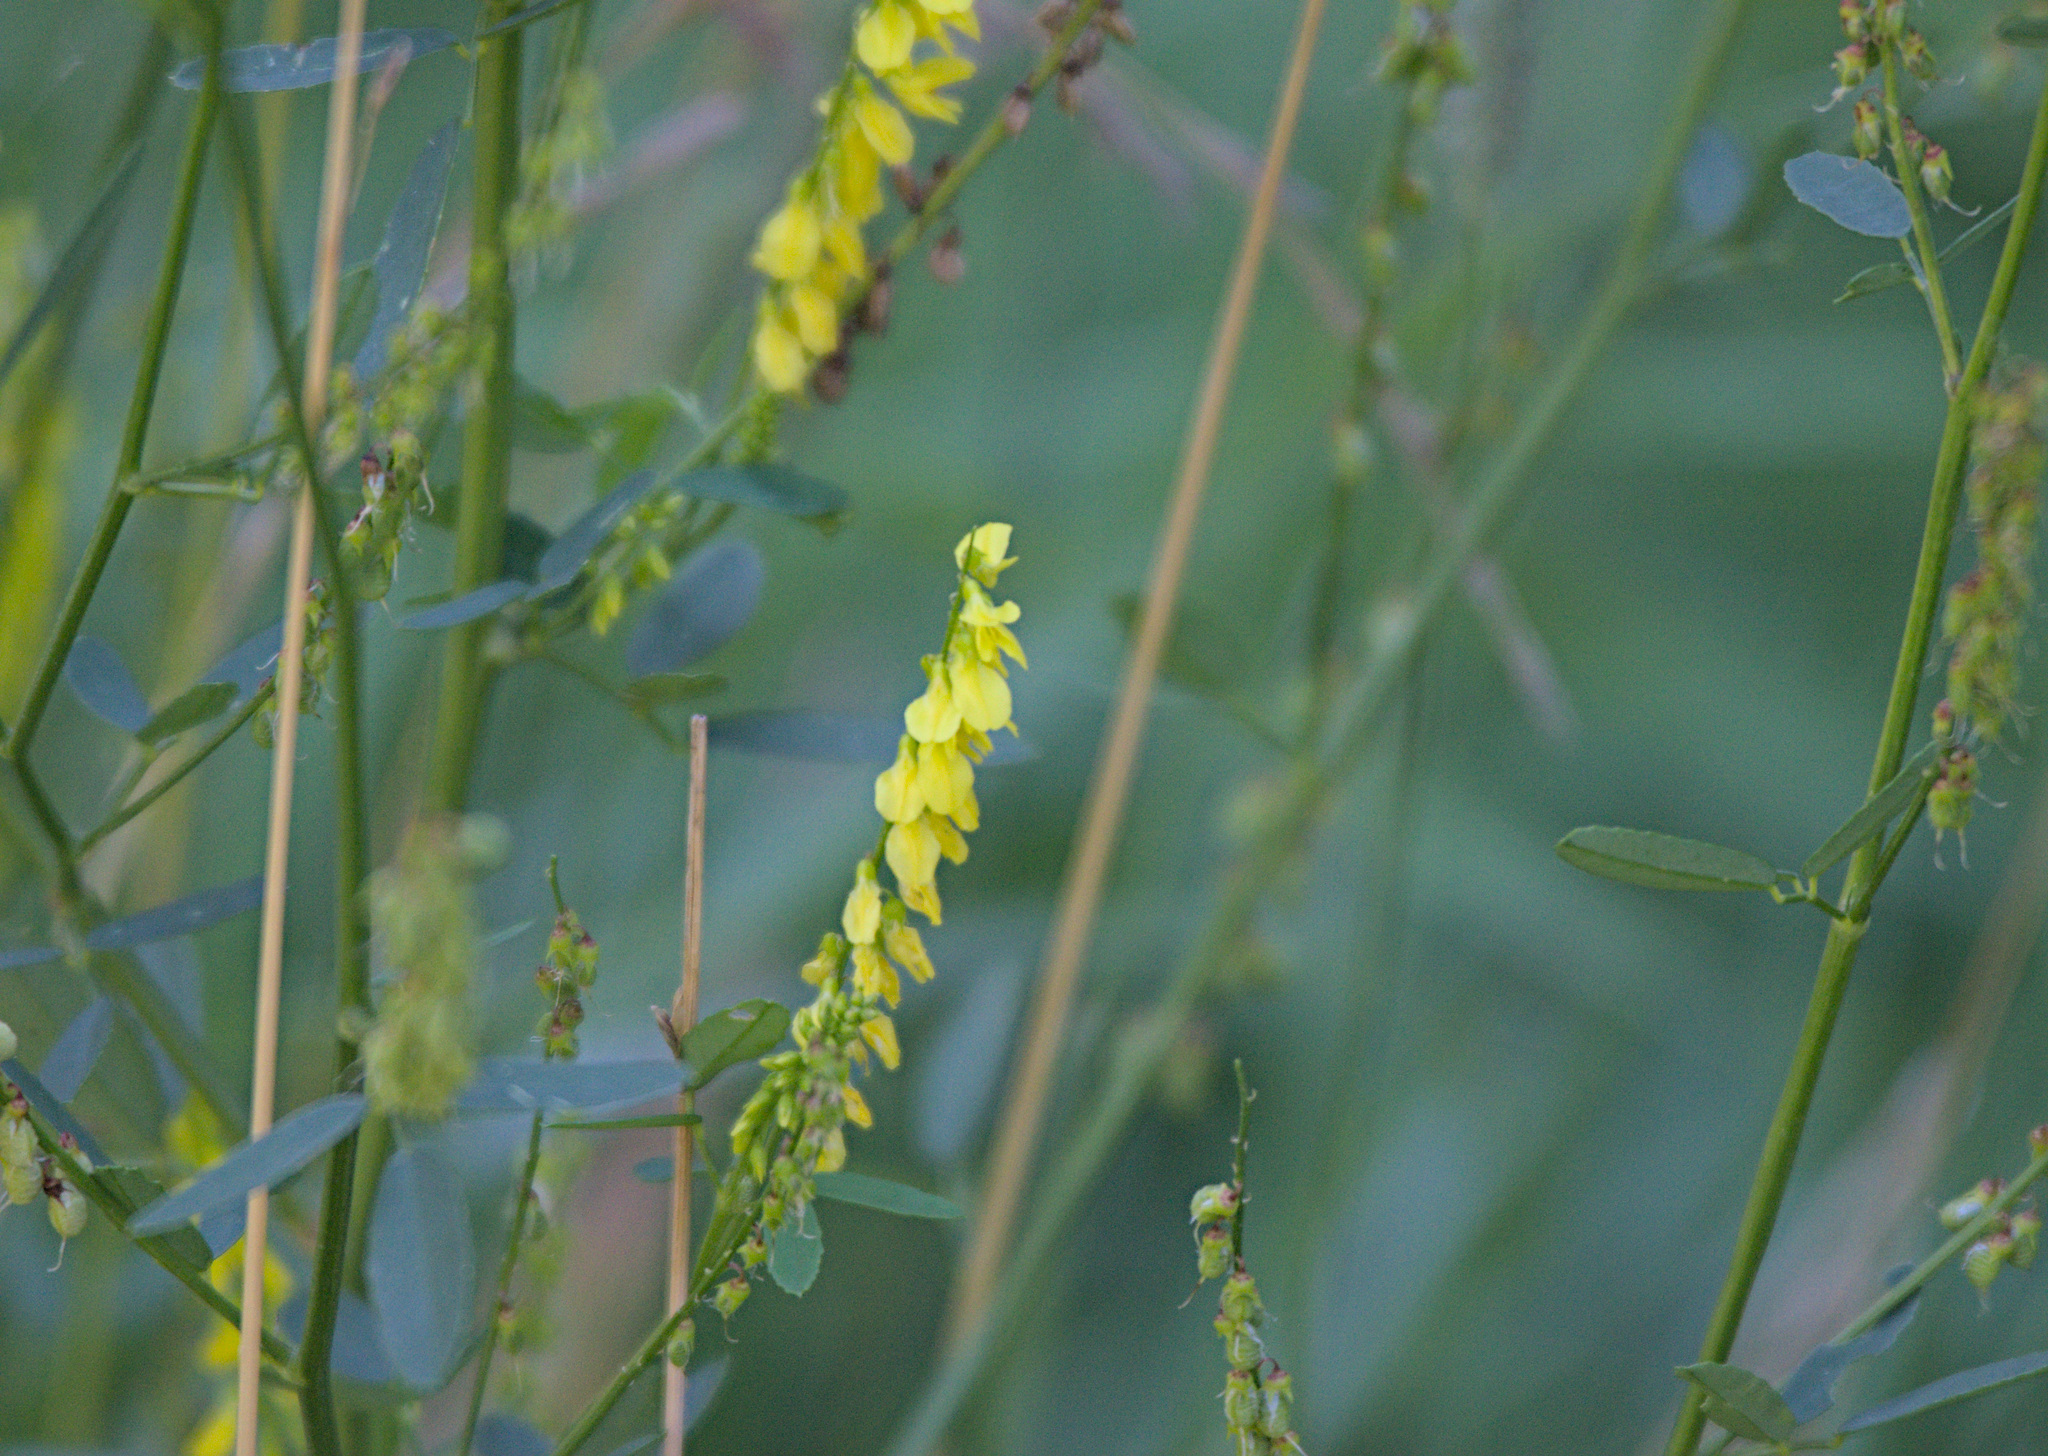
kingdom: Plantae
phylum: Tracheophyta
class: Magnoliopsida
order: Fabales
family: Fabaceae
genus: Melilotus
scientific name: Melilotus officinalis
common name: Sweetclover
